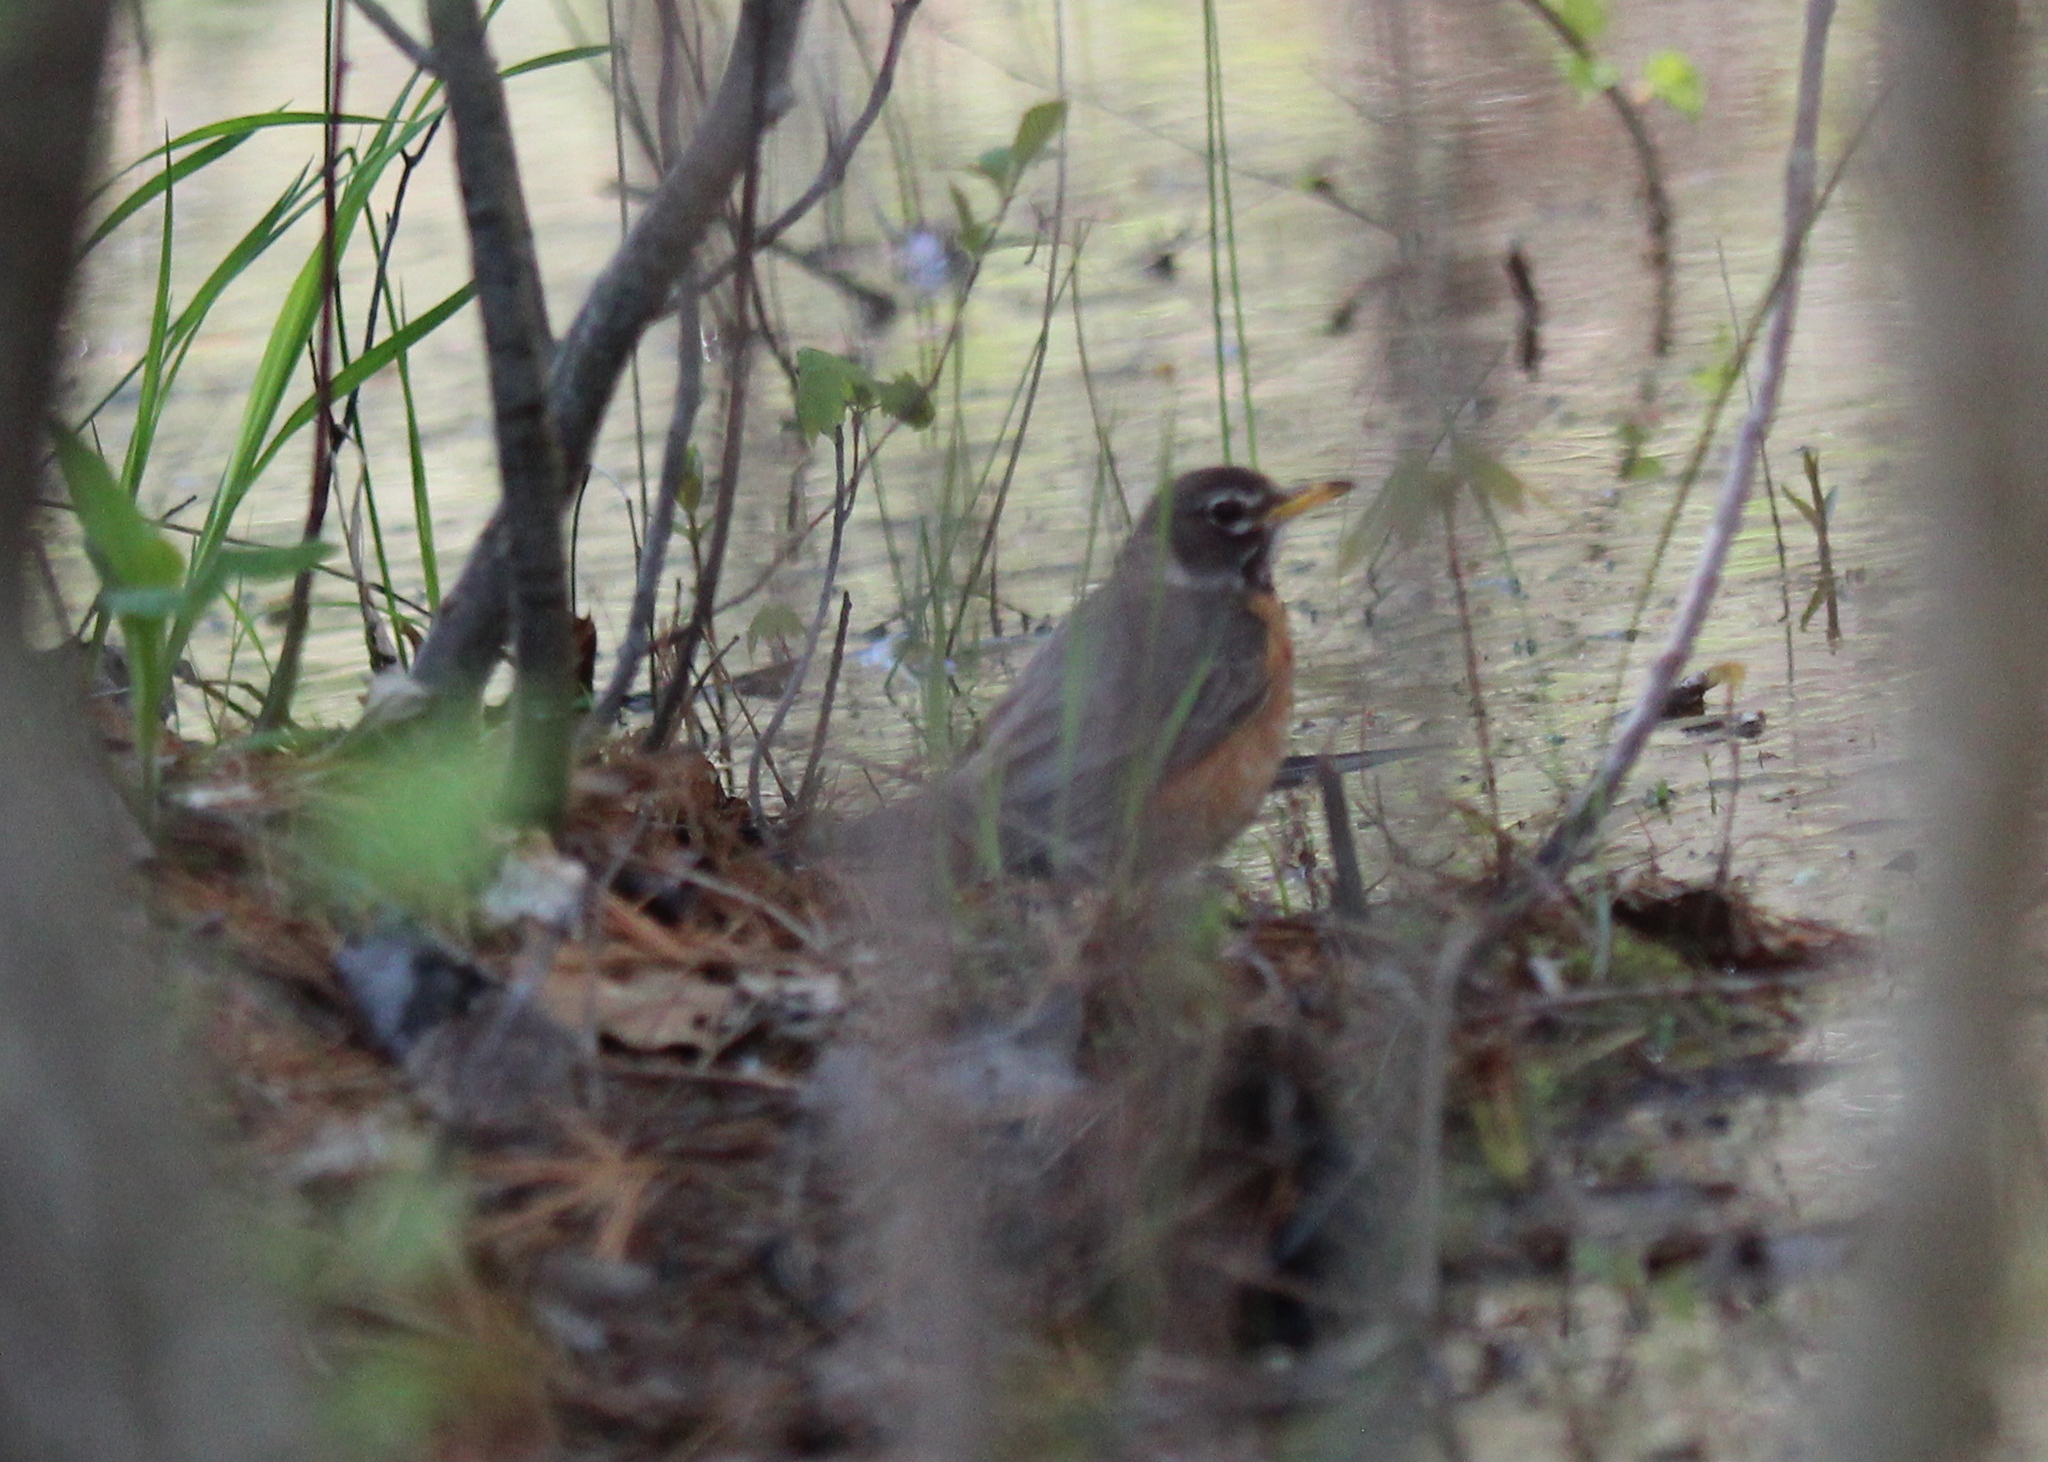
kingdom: Animalia
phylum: Chordata
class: Aves
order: Passeriformes
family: Turdidae
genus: Turdus
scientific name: Turdus migratorius
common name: American robin
